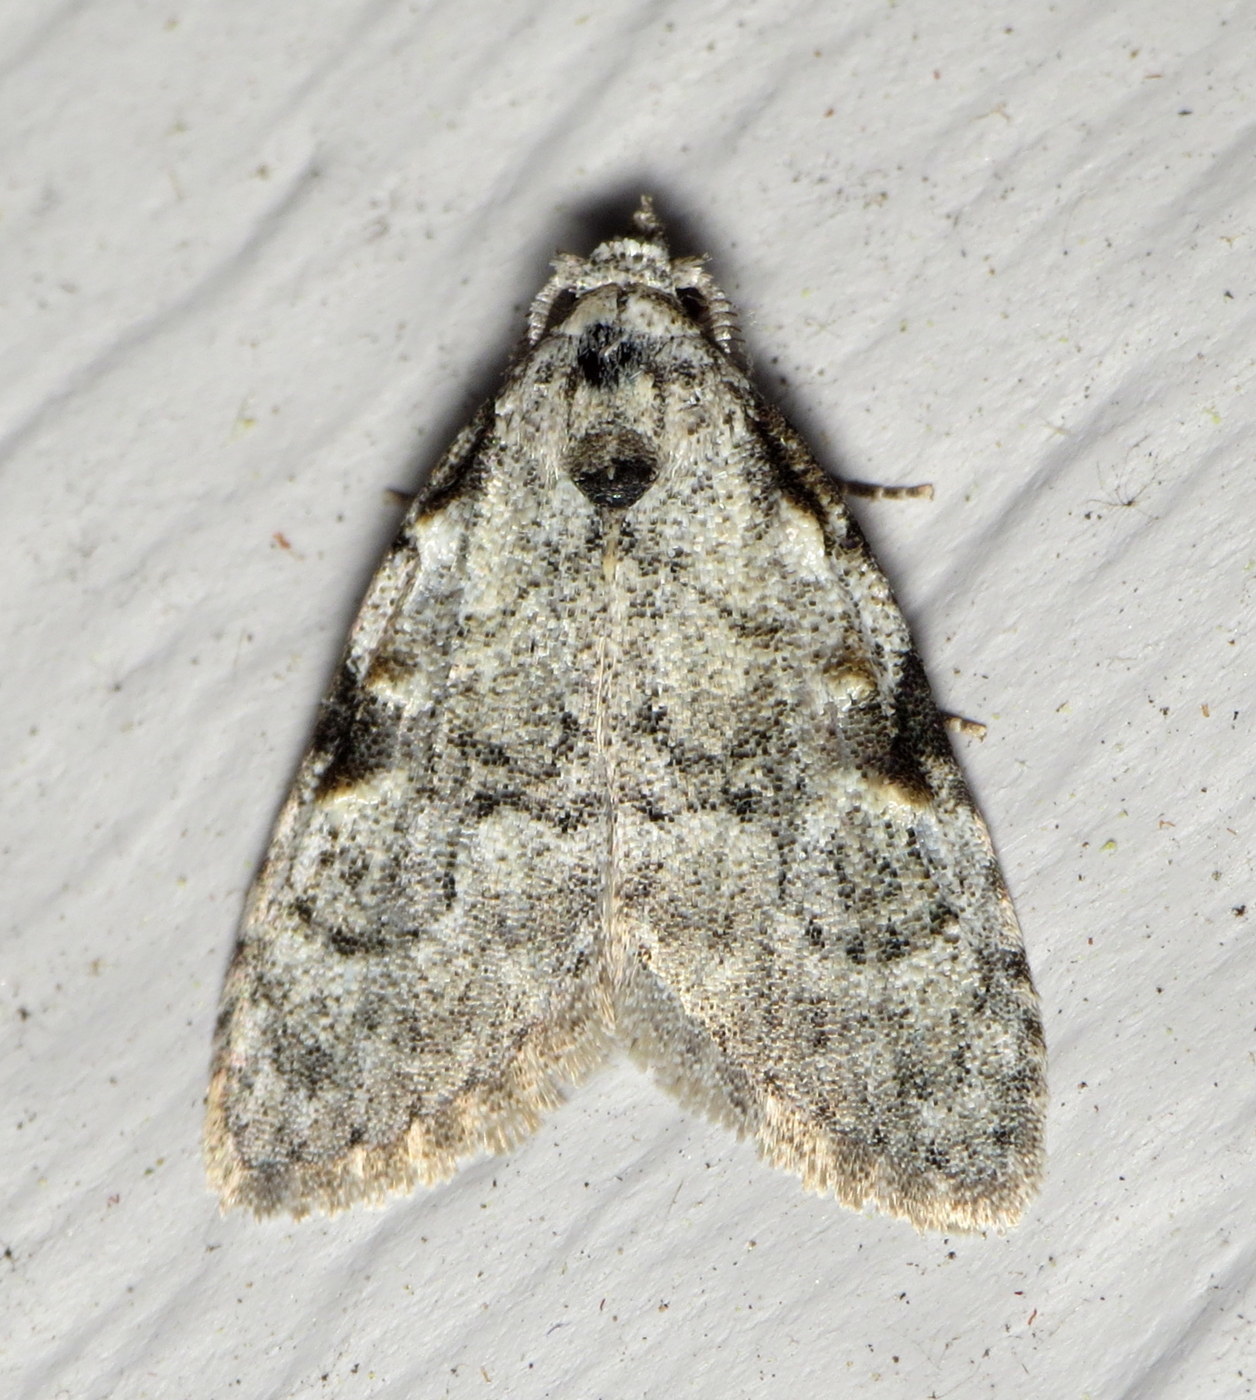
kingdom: Animalia
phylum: Arthropoda
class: Insecta
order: Lepidoptera
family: Nolidae
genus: Meganola
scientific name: Meganola minuscula
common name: Confused meganola moth
